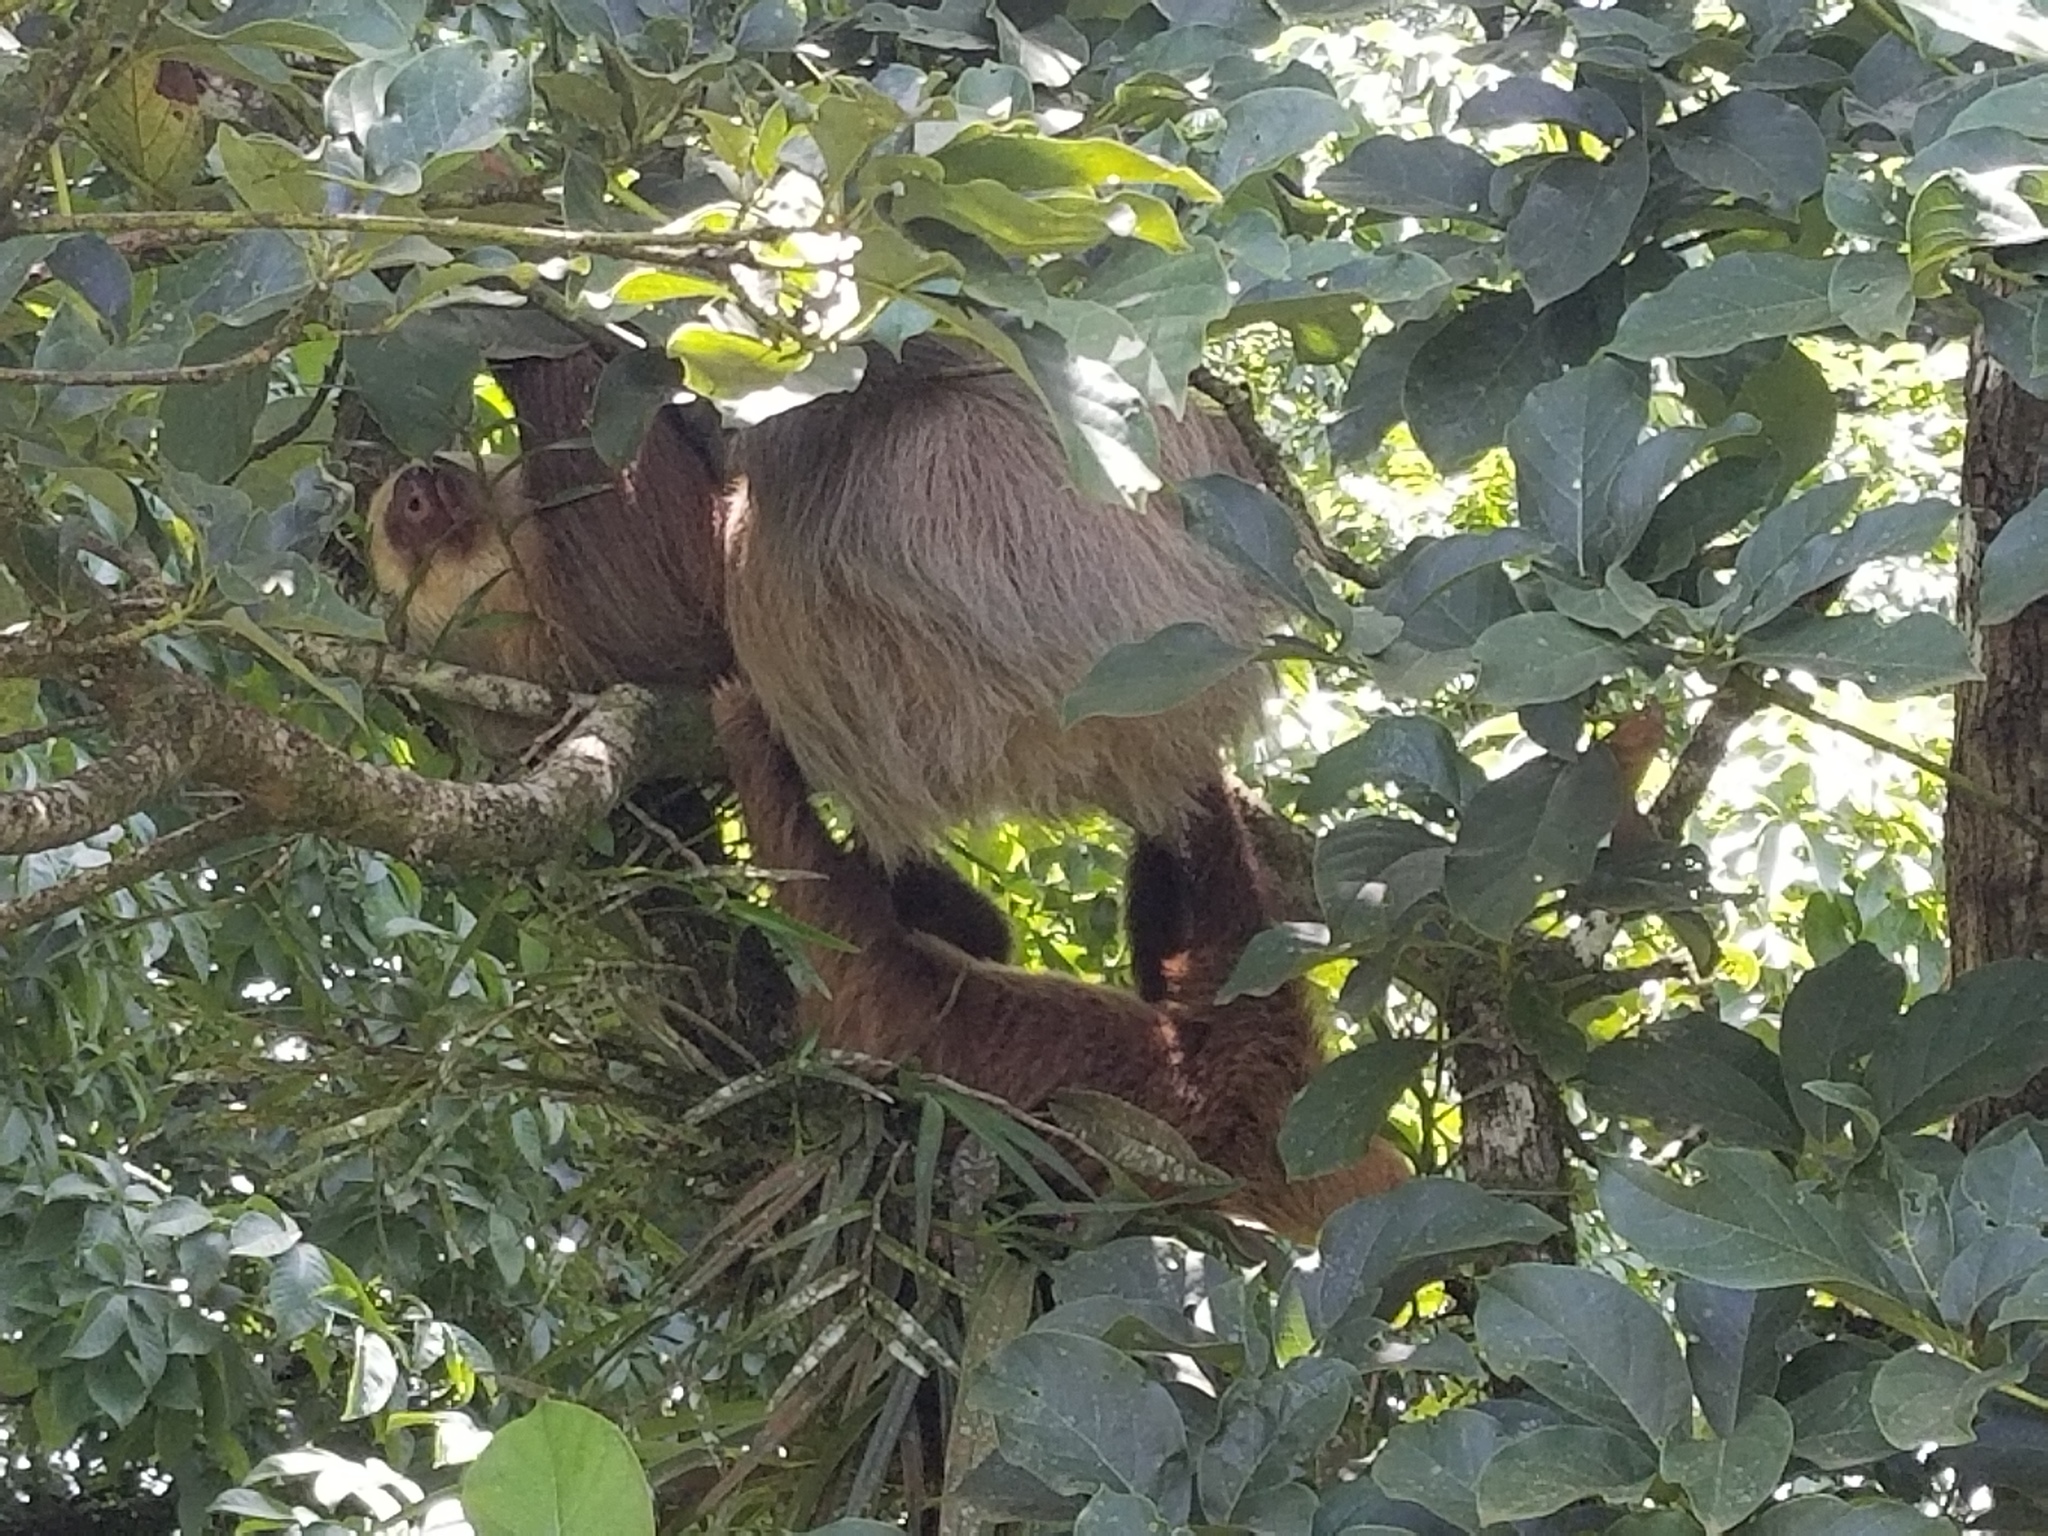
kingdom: Animalia
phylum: Chordata
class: Mammalia
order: Pilosa
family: Megalonychidae
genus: Choloepus
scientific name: Choloepus hoffmanni
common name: Hoffmann's two-toed sloth
